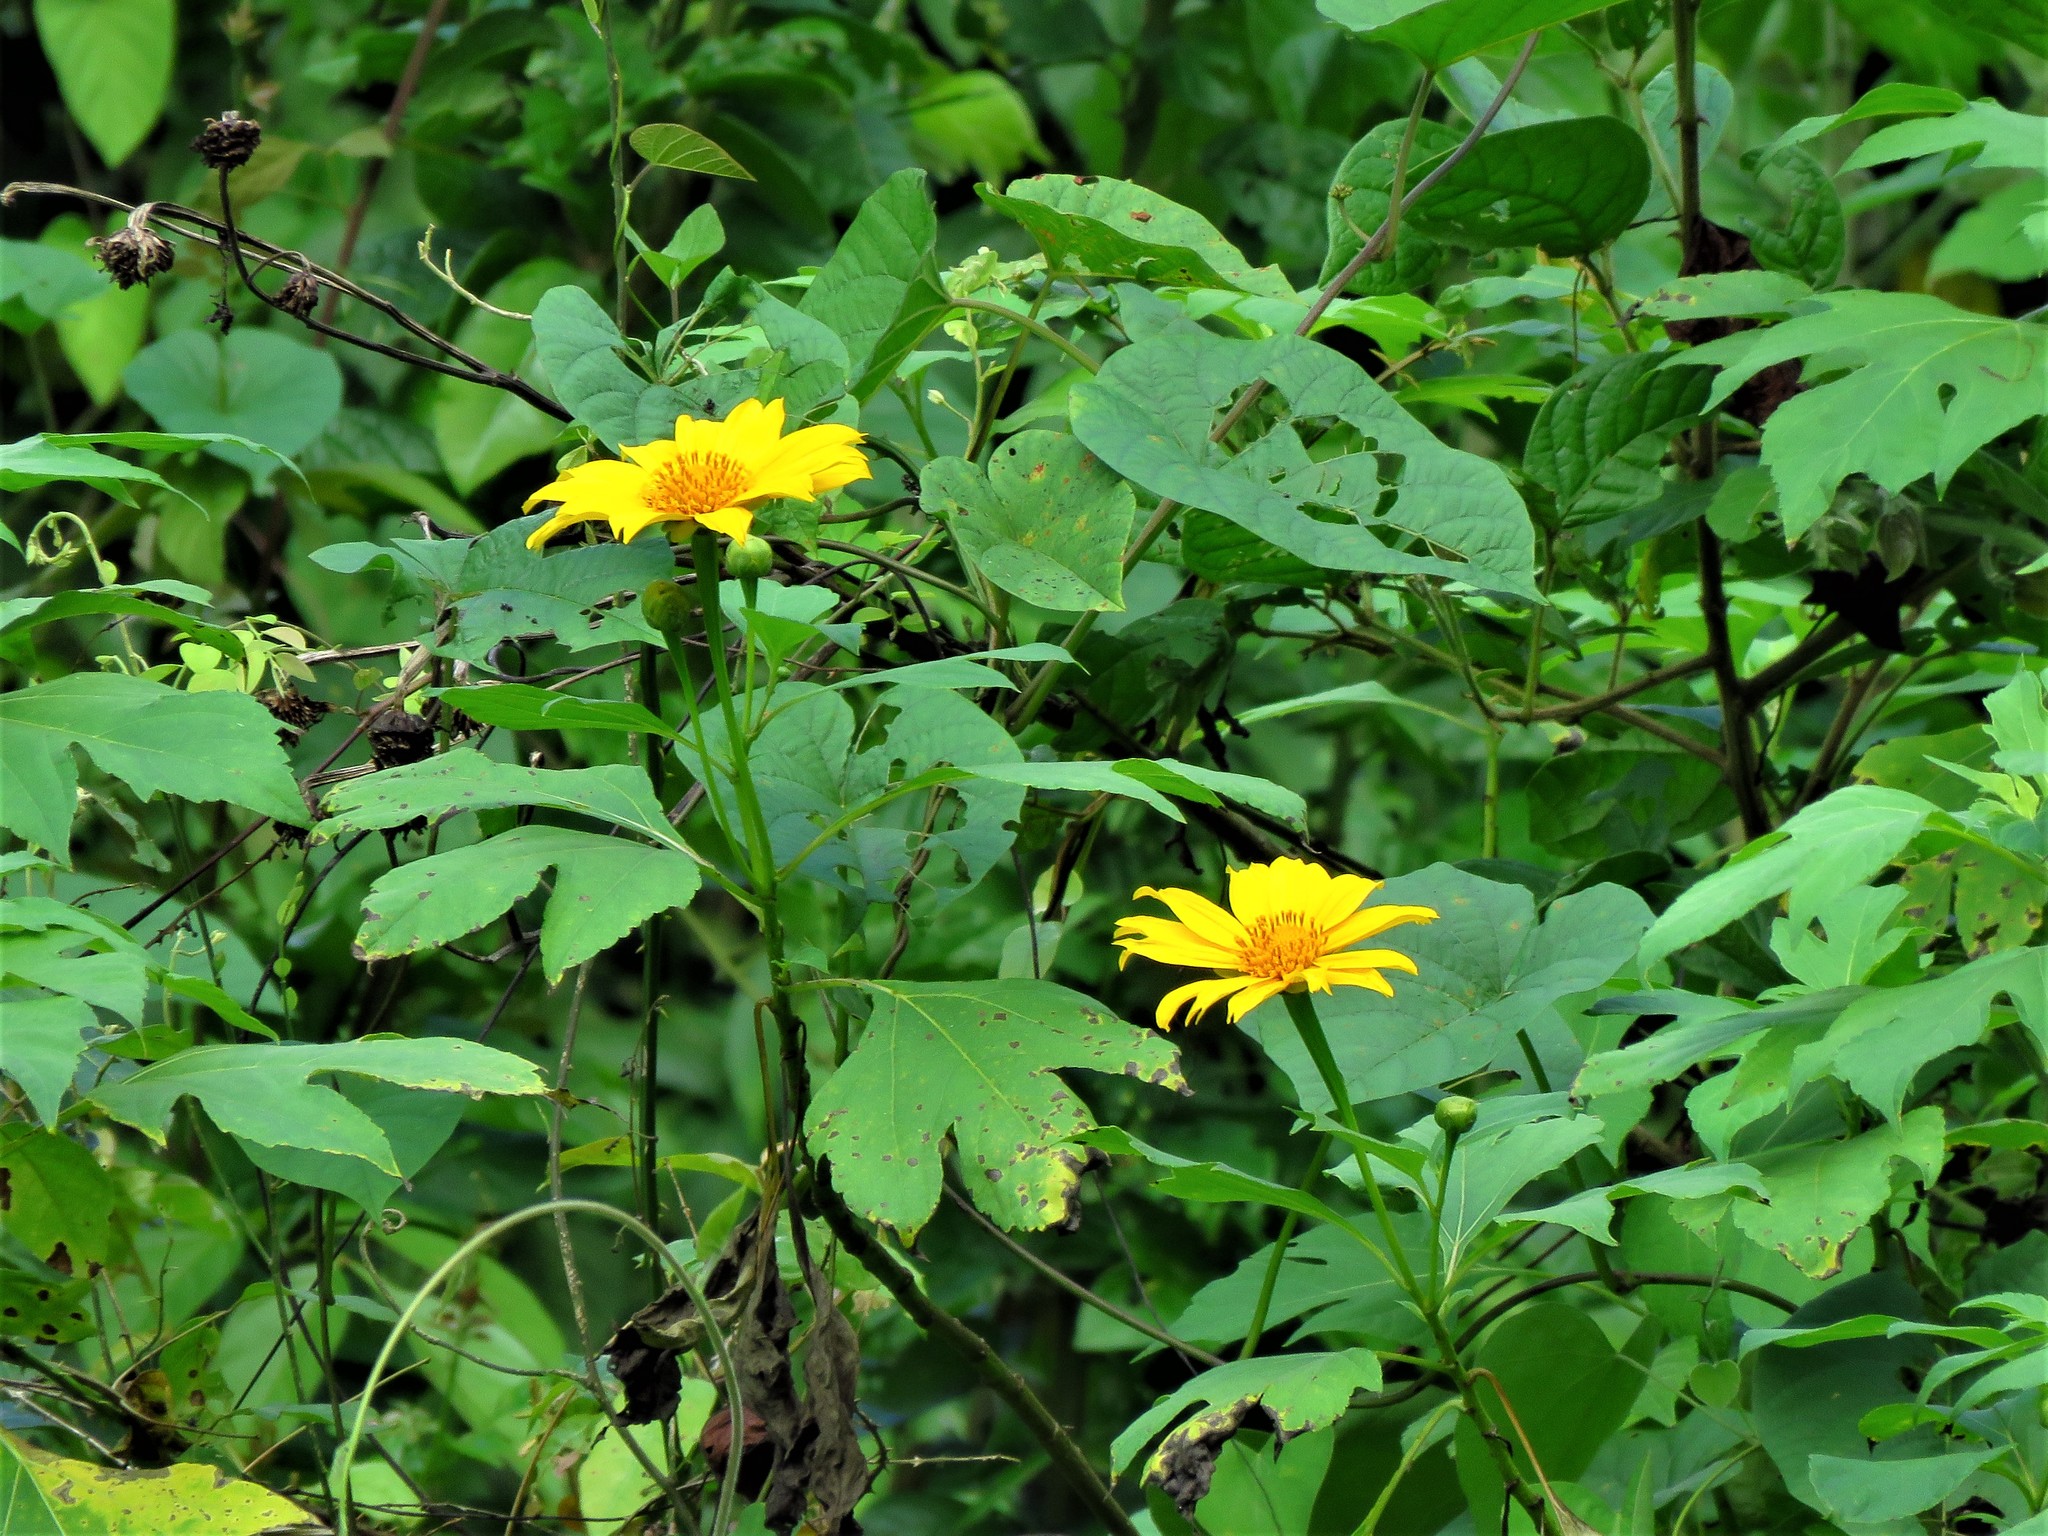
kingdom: Plantae
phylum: Tracheophyta
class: Magnoliopsida
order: Asterales
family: Asteraceae
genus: Tithonia
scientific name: Tithonia diversifolia
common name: Tree marigold
